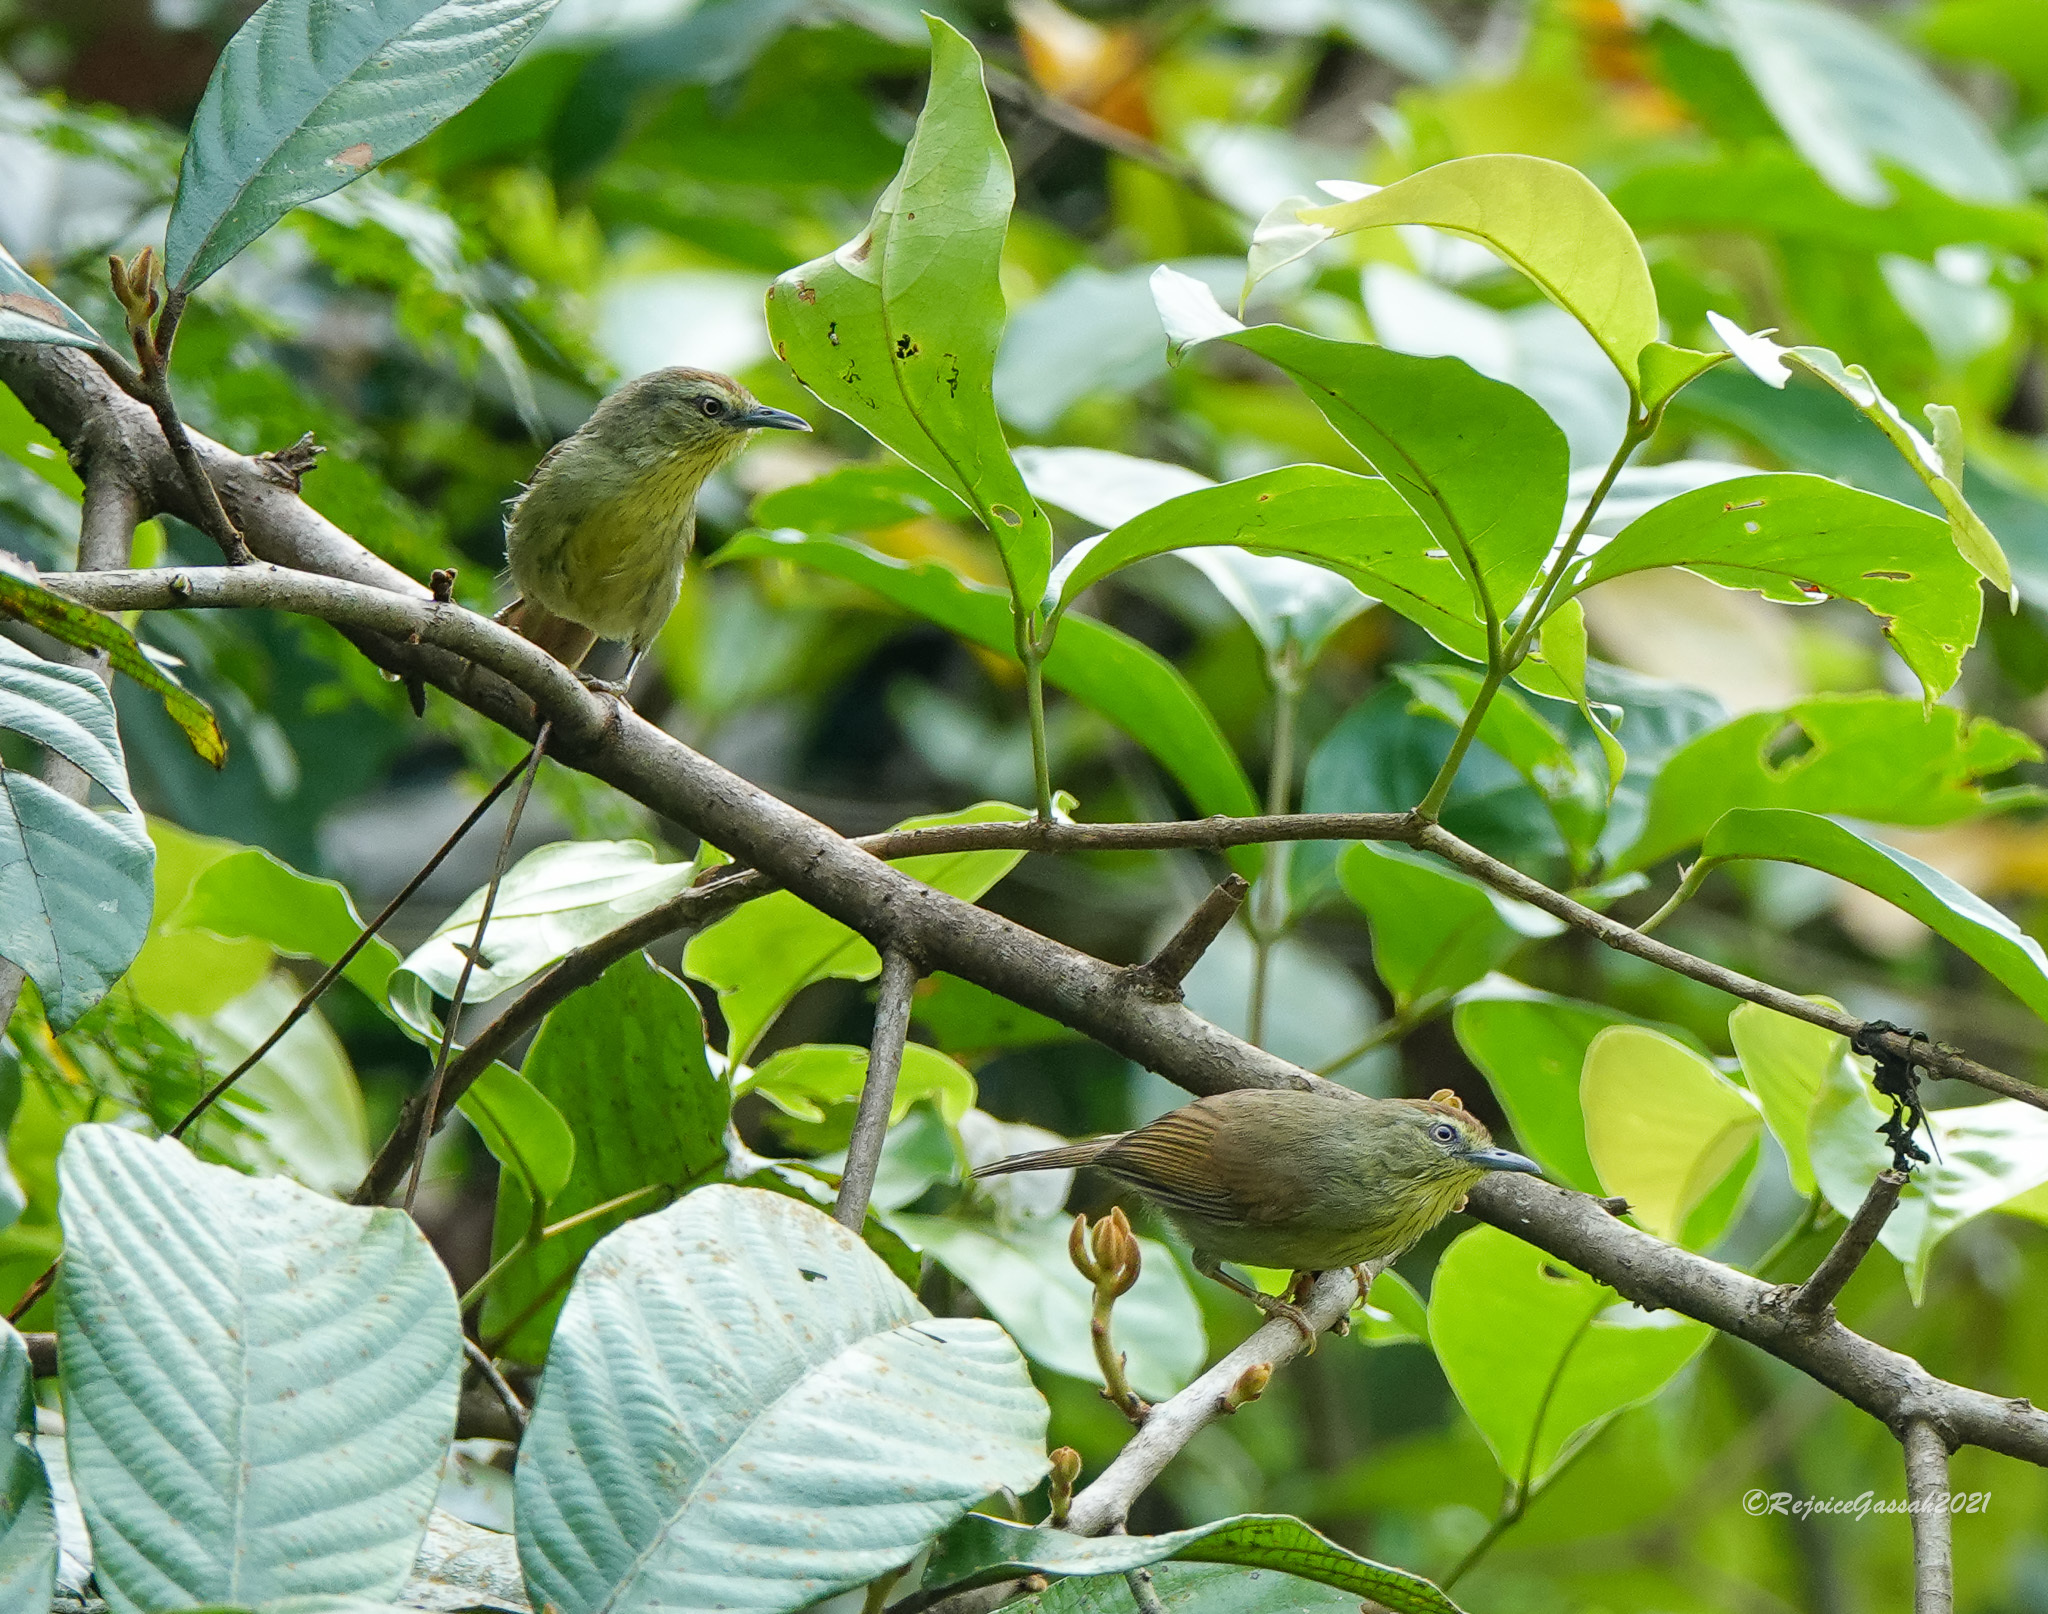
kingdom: Animalia
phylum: Chordata
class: Aves
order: Passeriformes
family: Timaliidae
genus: Macronus
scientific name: Macronus gularis
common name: Striped tit-babbler
